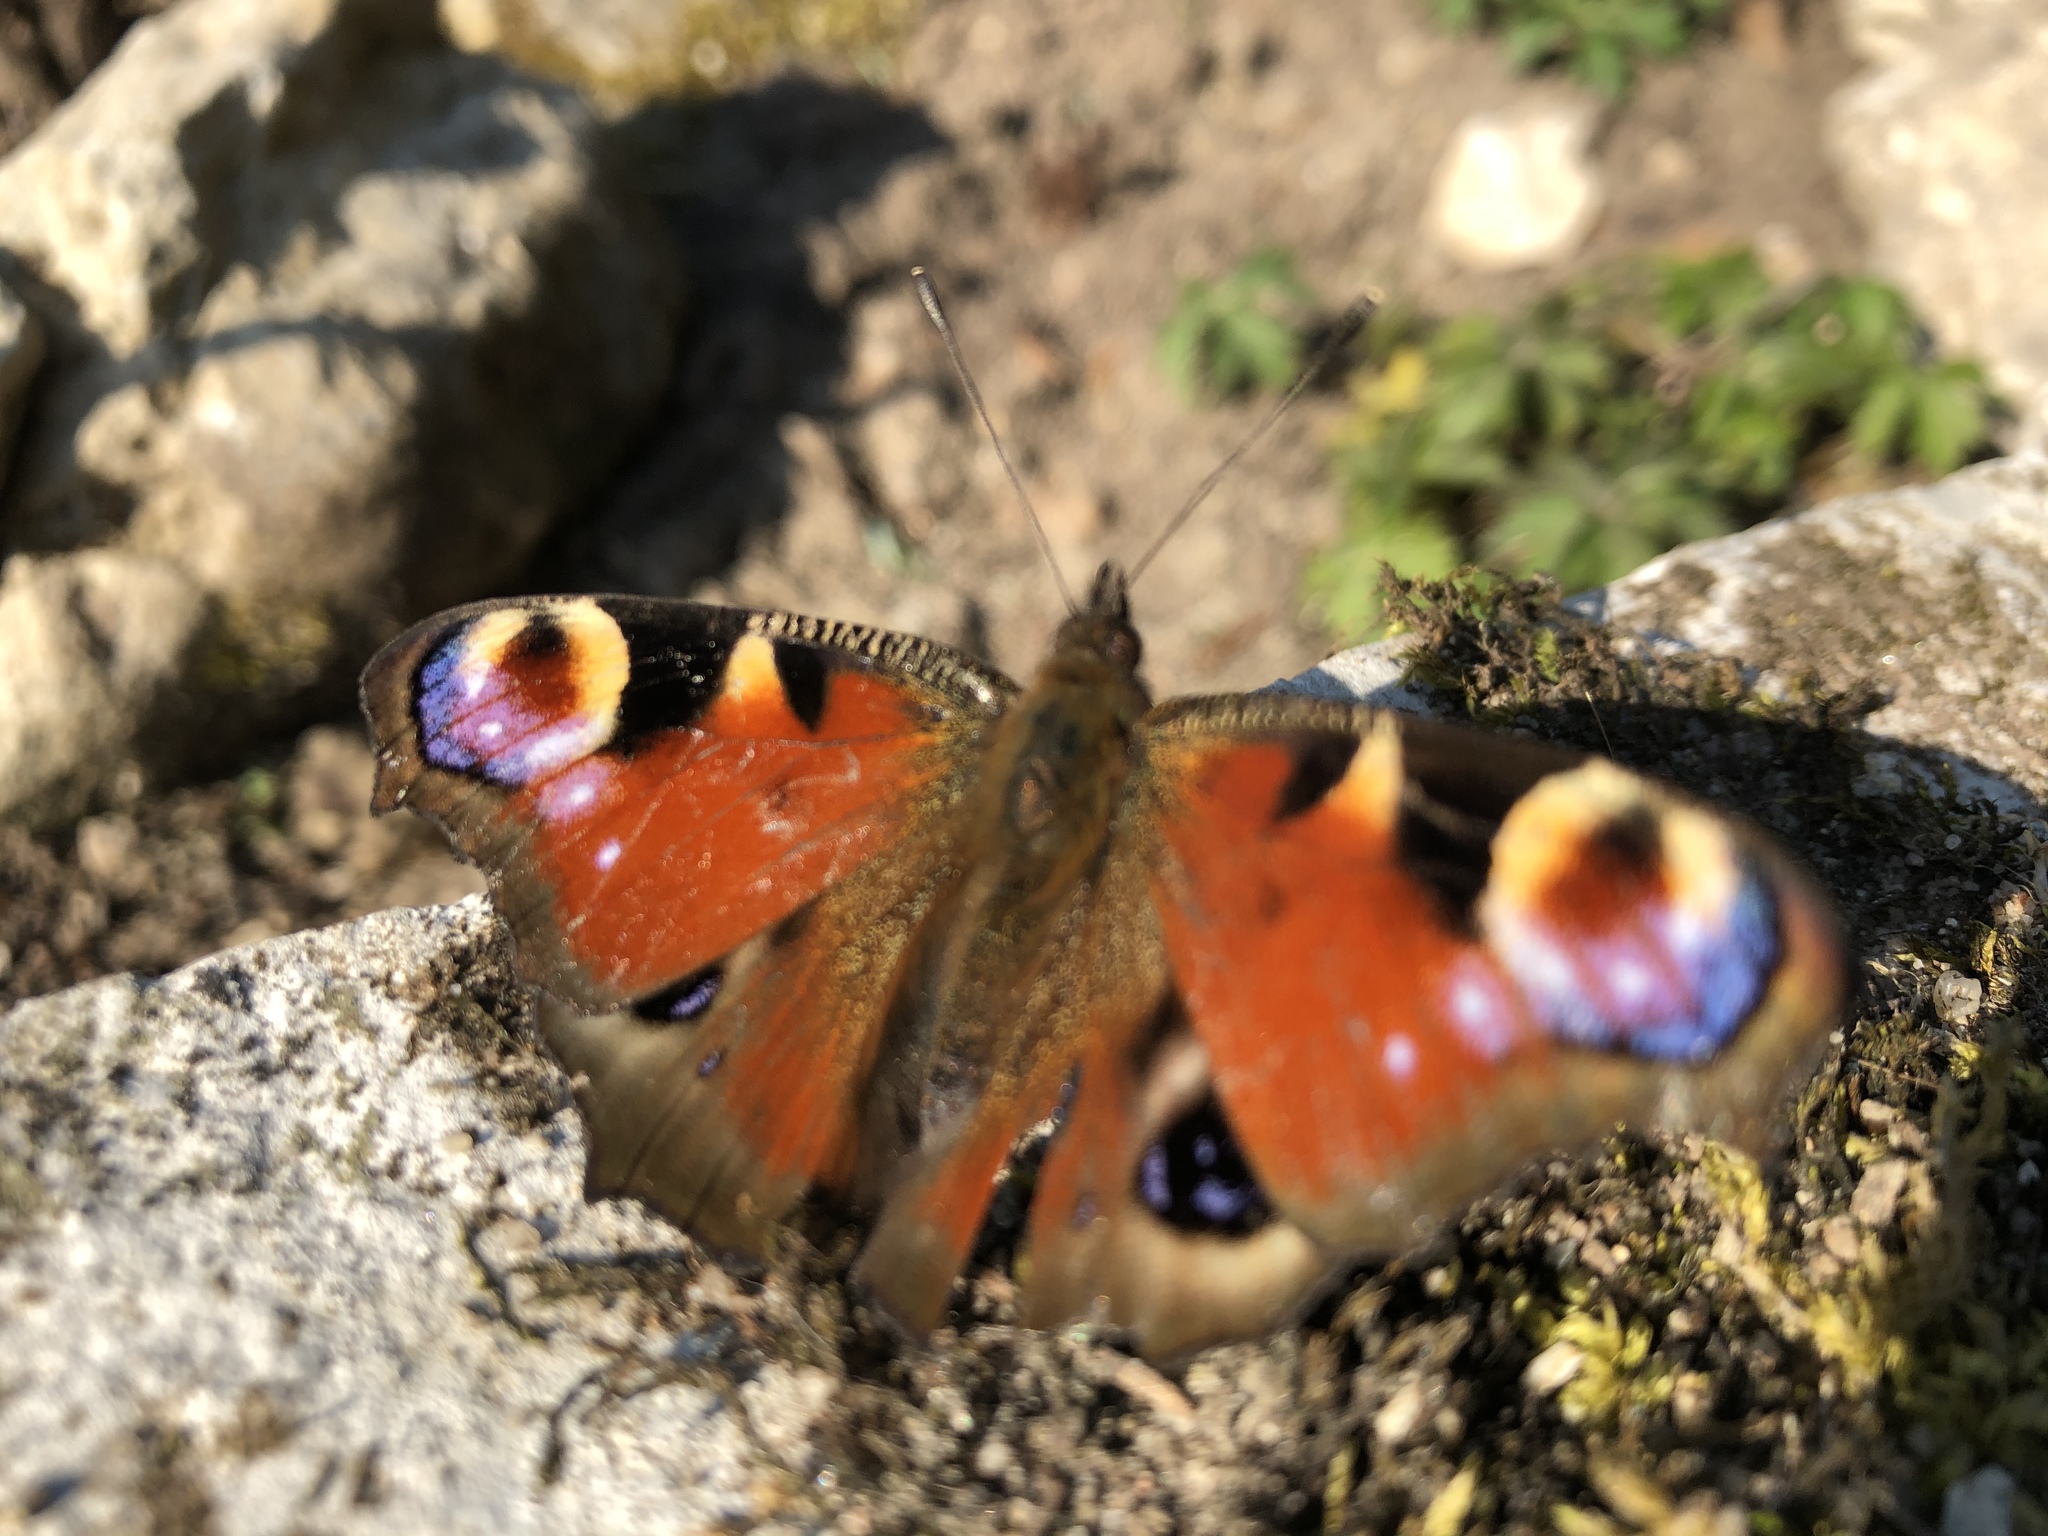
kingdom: Animalia
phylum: Arthropoda
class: Insecta
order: Lepidoptera
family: Nymphalidae
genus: Aglais
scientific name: Aglais io
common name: Peacock
